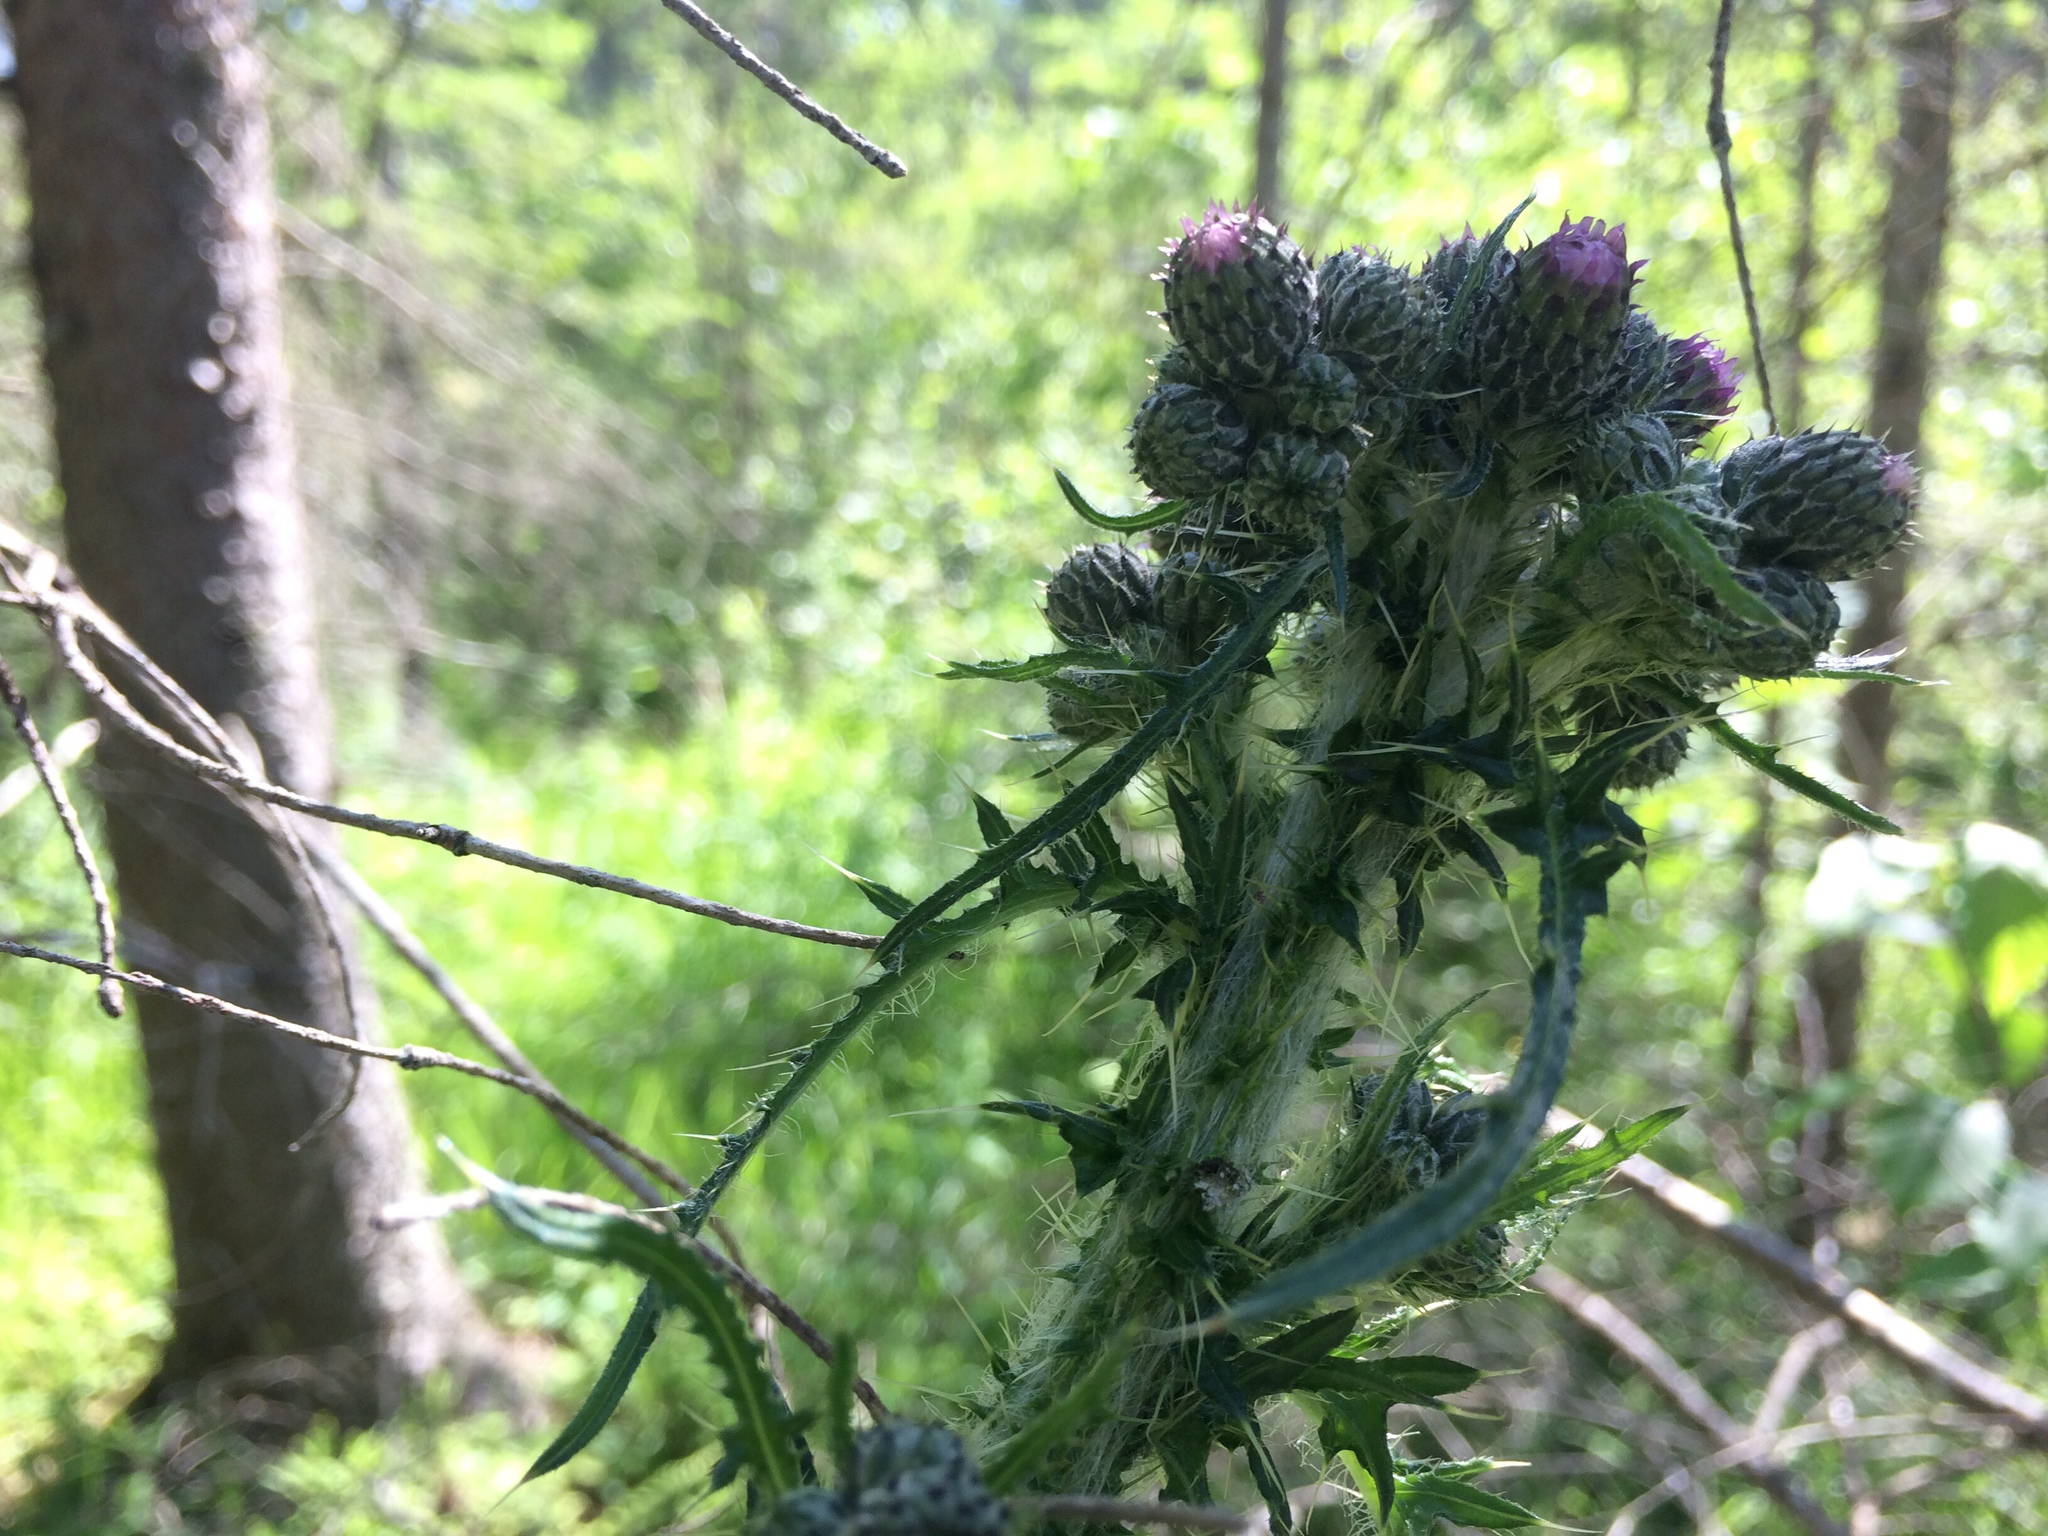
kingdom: Plantae
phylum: Tracheophyta
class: Magnoliopsida
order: Asterales
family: Asteraceae
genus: Cirsium
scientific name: Cirsium palustre
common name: Marsh thistle
